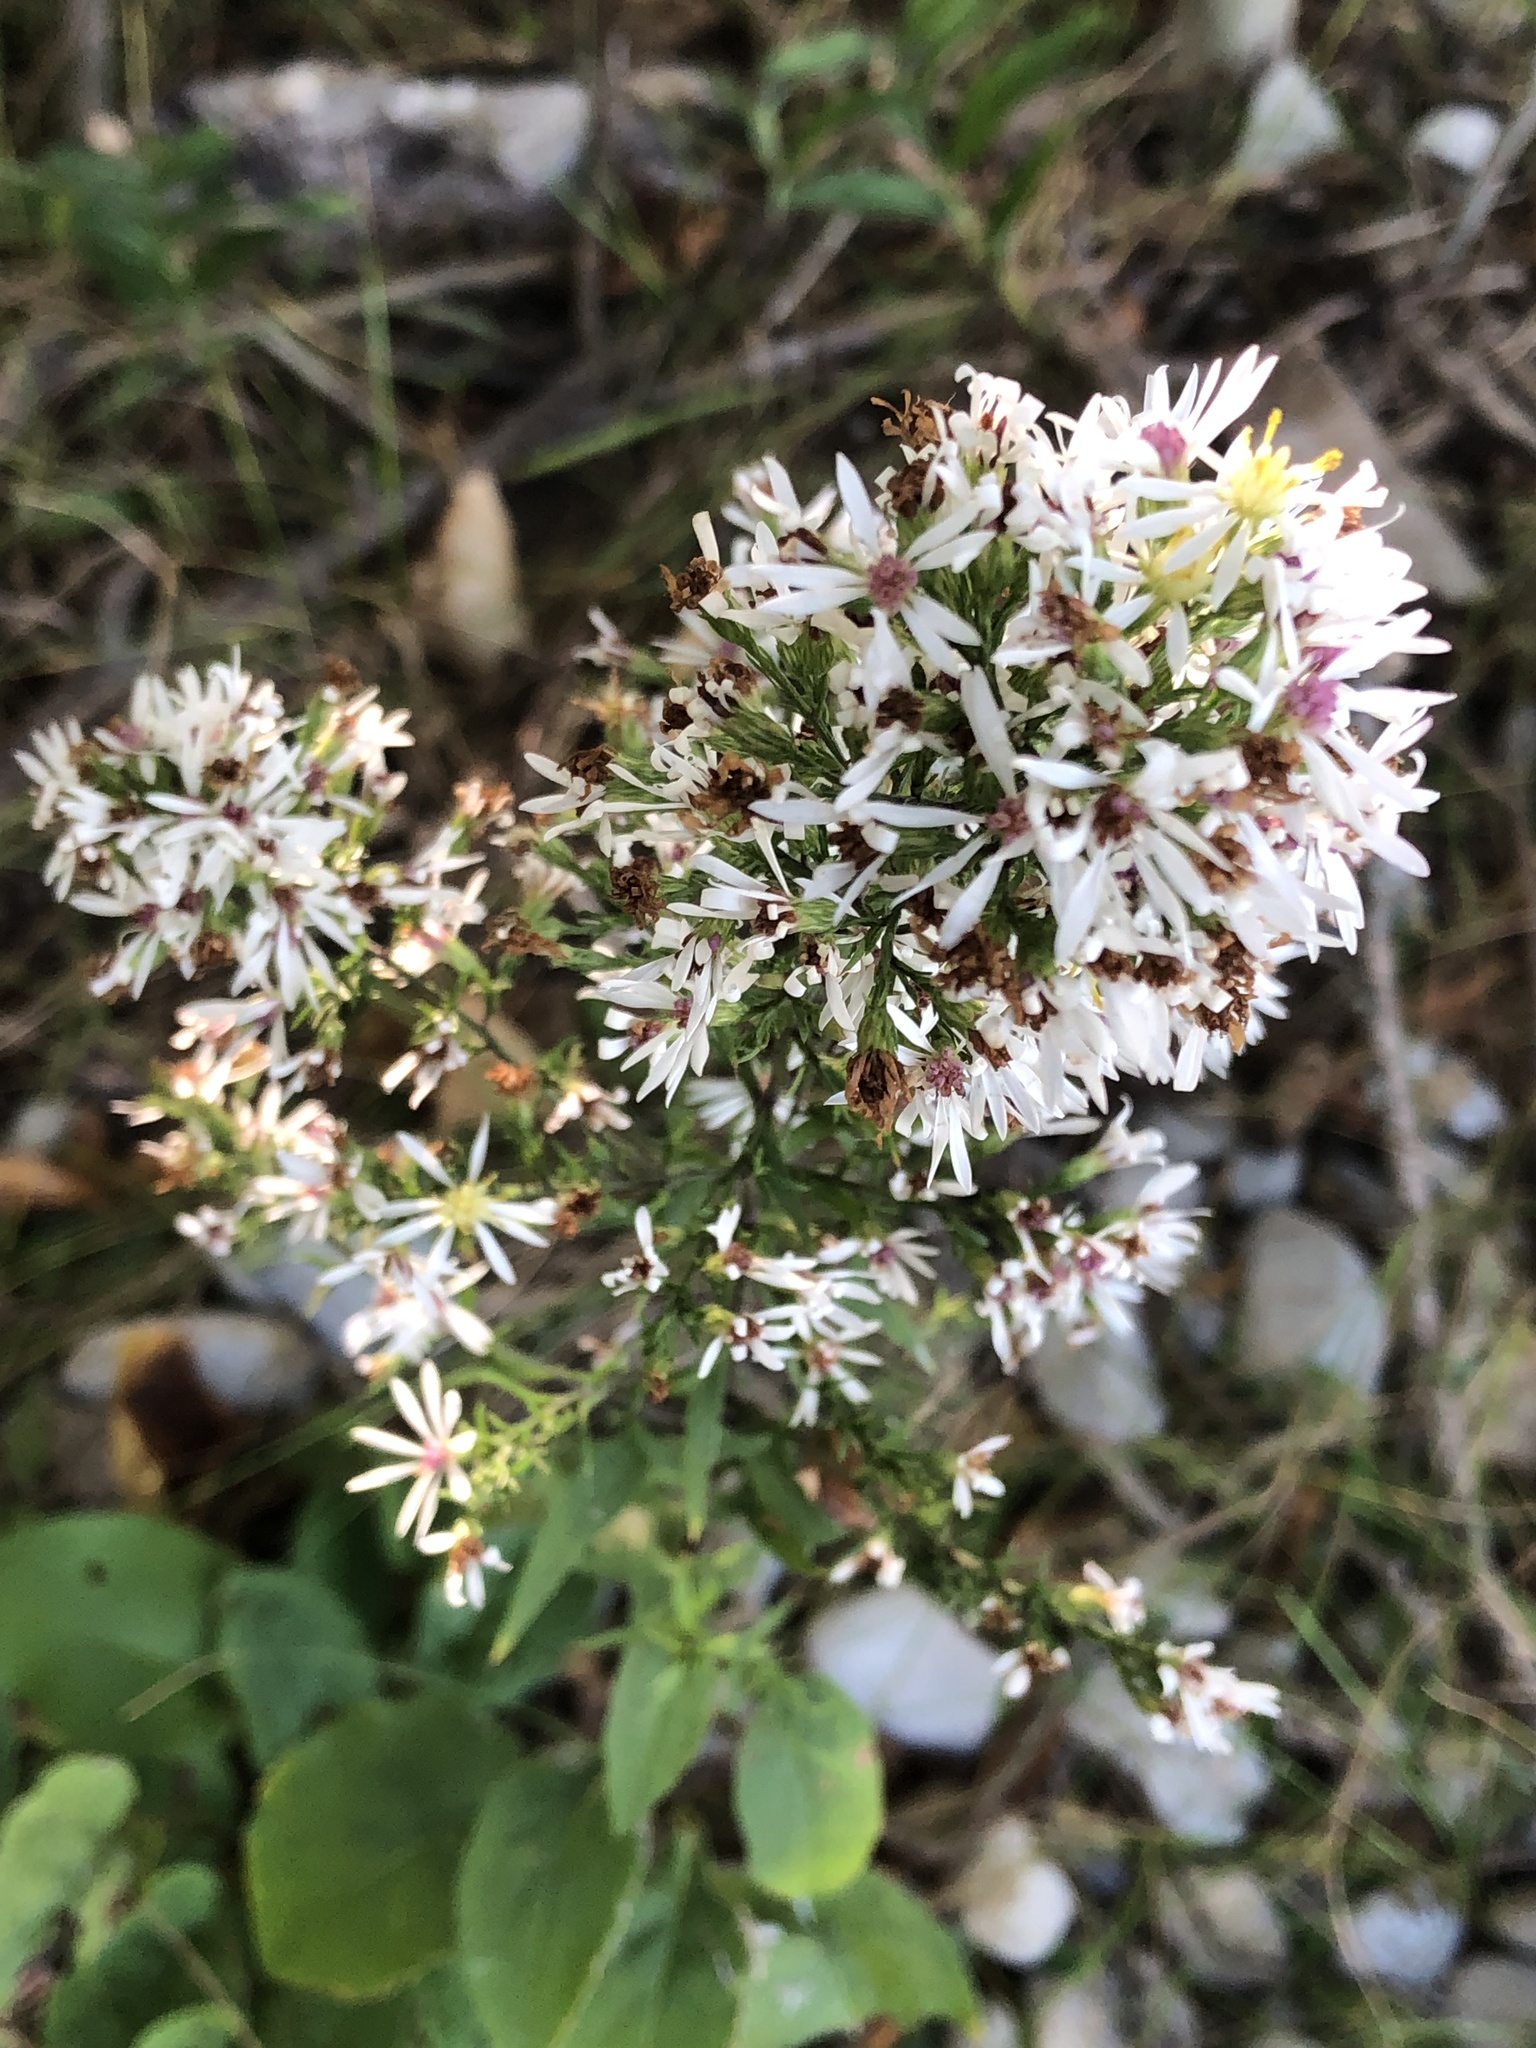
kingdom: Plantae
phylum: Tracheophyta
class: Magnoliopsida
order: Asterales
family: Asteraceae
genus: Symphyotrichum
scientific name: Symphyotrichum urophyllum
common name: Arrow-leaved aster
